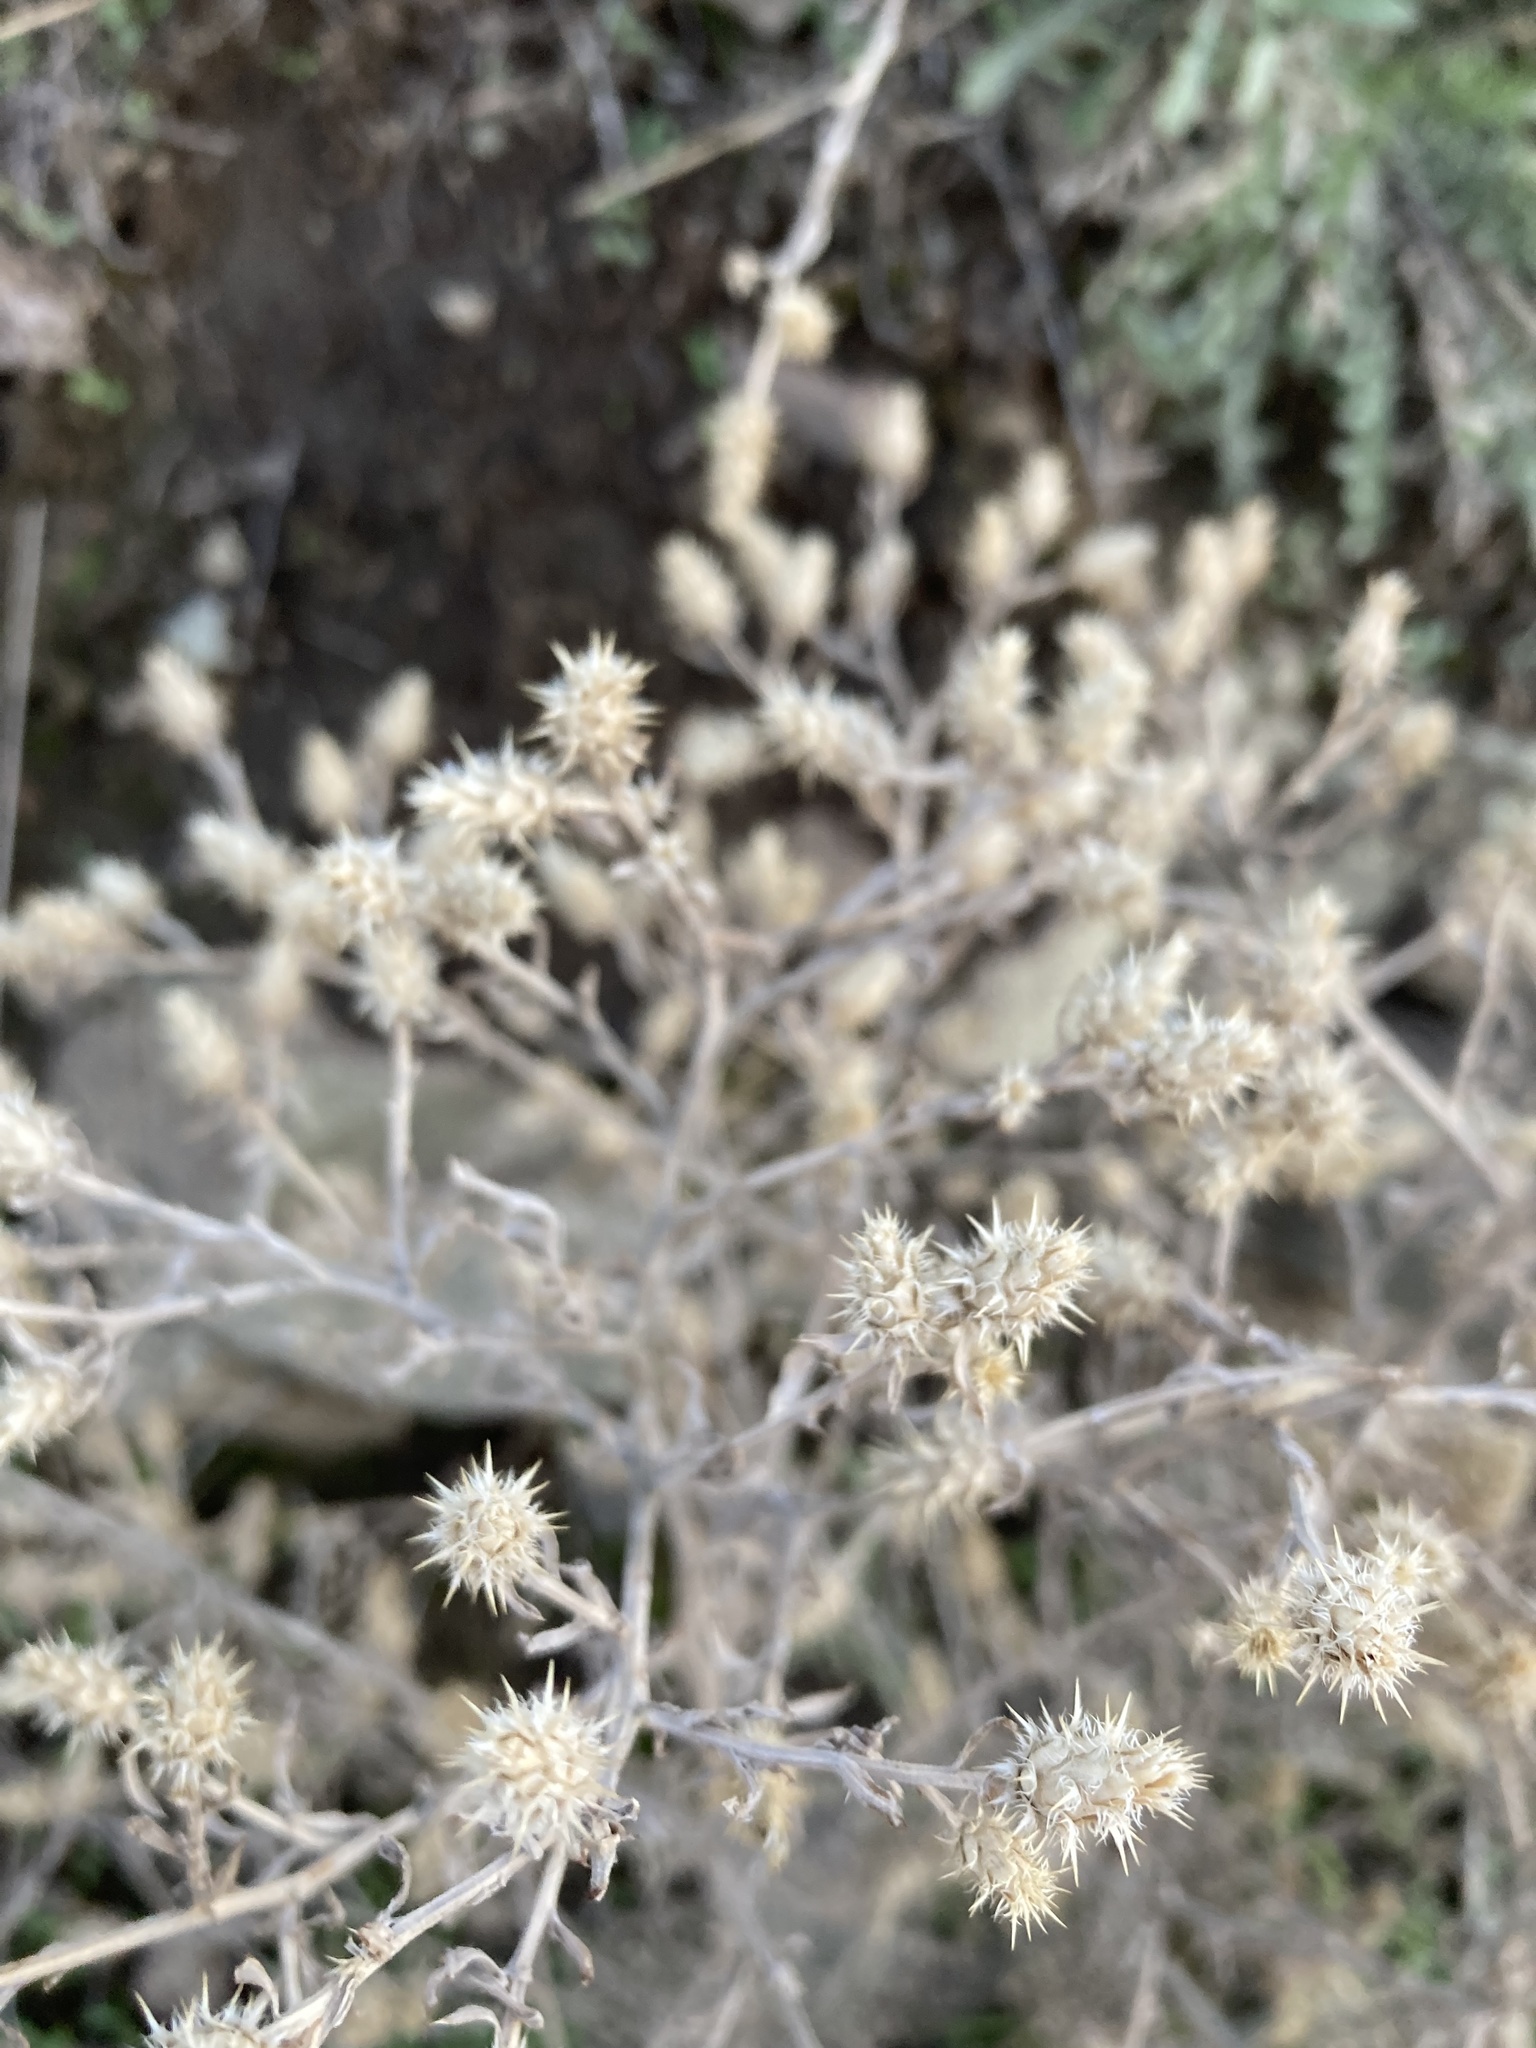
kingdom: Plantae
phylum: Tracheophyta
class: Magnoliopsida
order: Asterales
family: Asteraceae
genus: Centaurea
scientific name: Centaurea diffusa
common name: Diffuse knapweed
